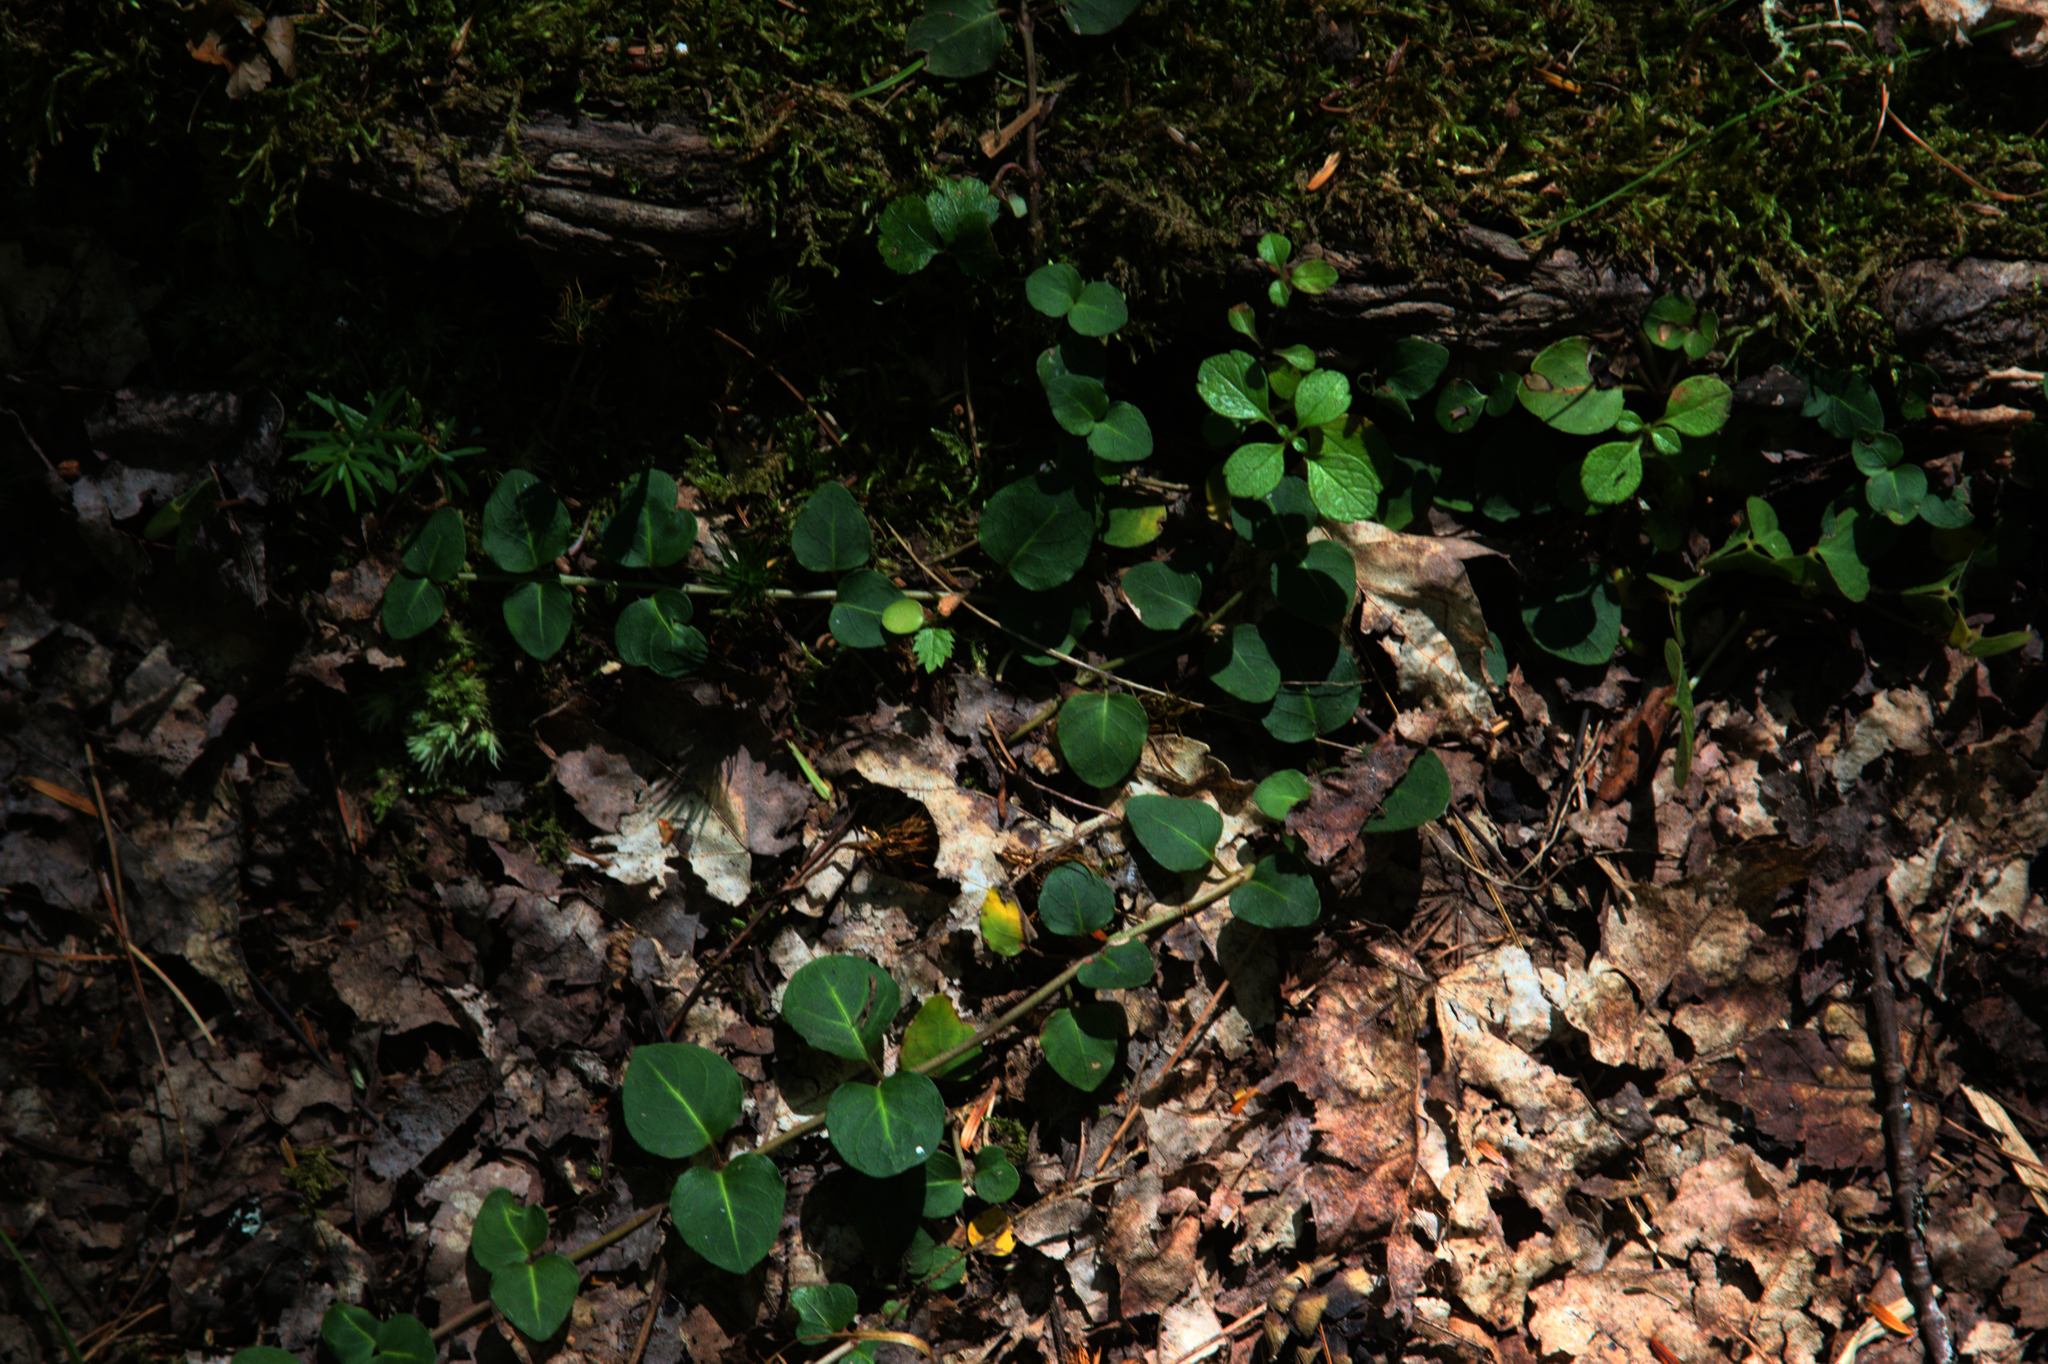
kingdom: Plantae
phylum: Tracheophyta
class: Magnoliopsida
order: Gentianales
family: Rubiaceae
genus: Mitchella
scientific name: Mitchella repens
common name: Partridge-berry
